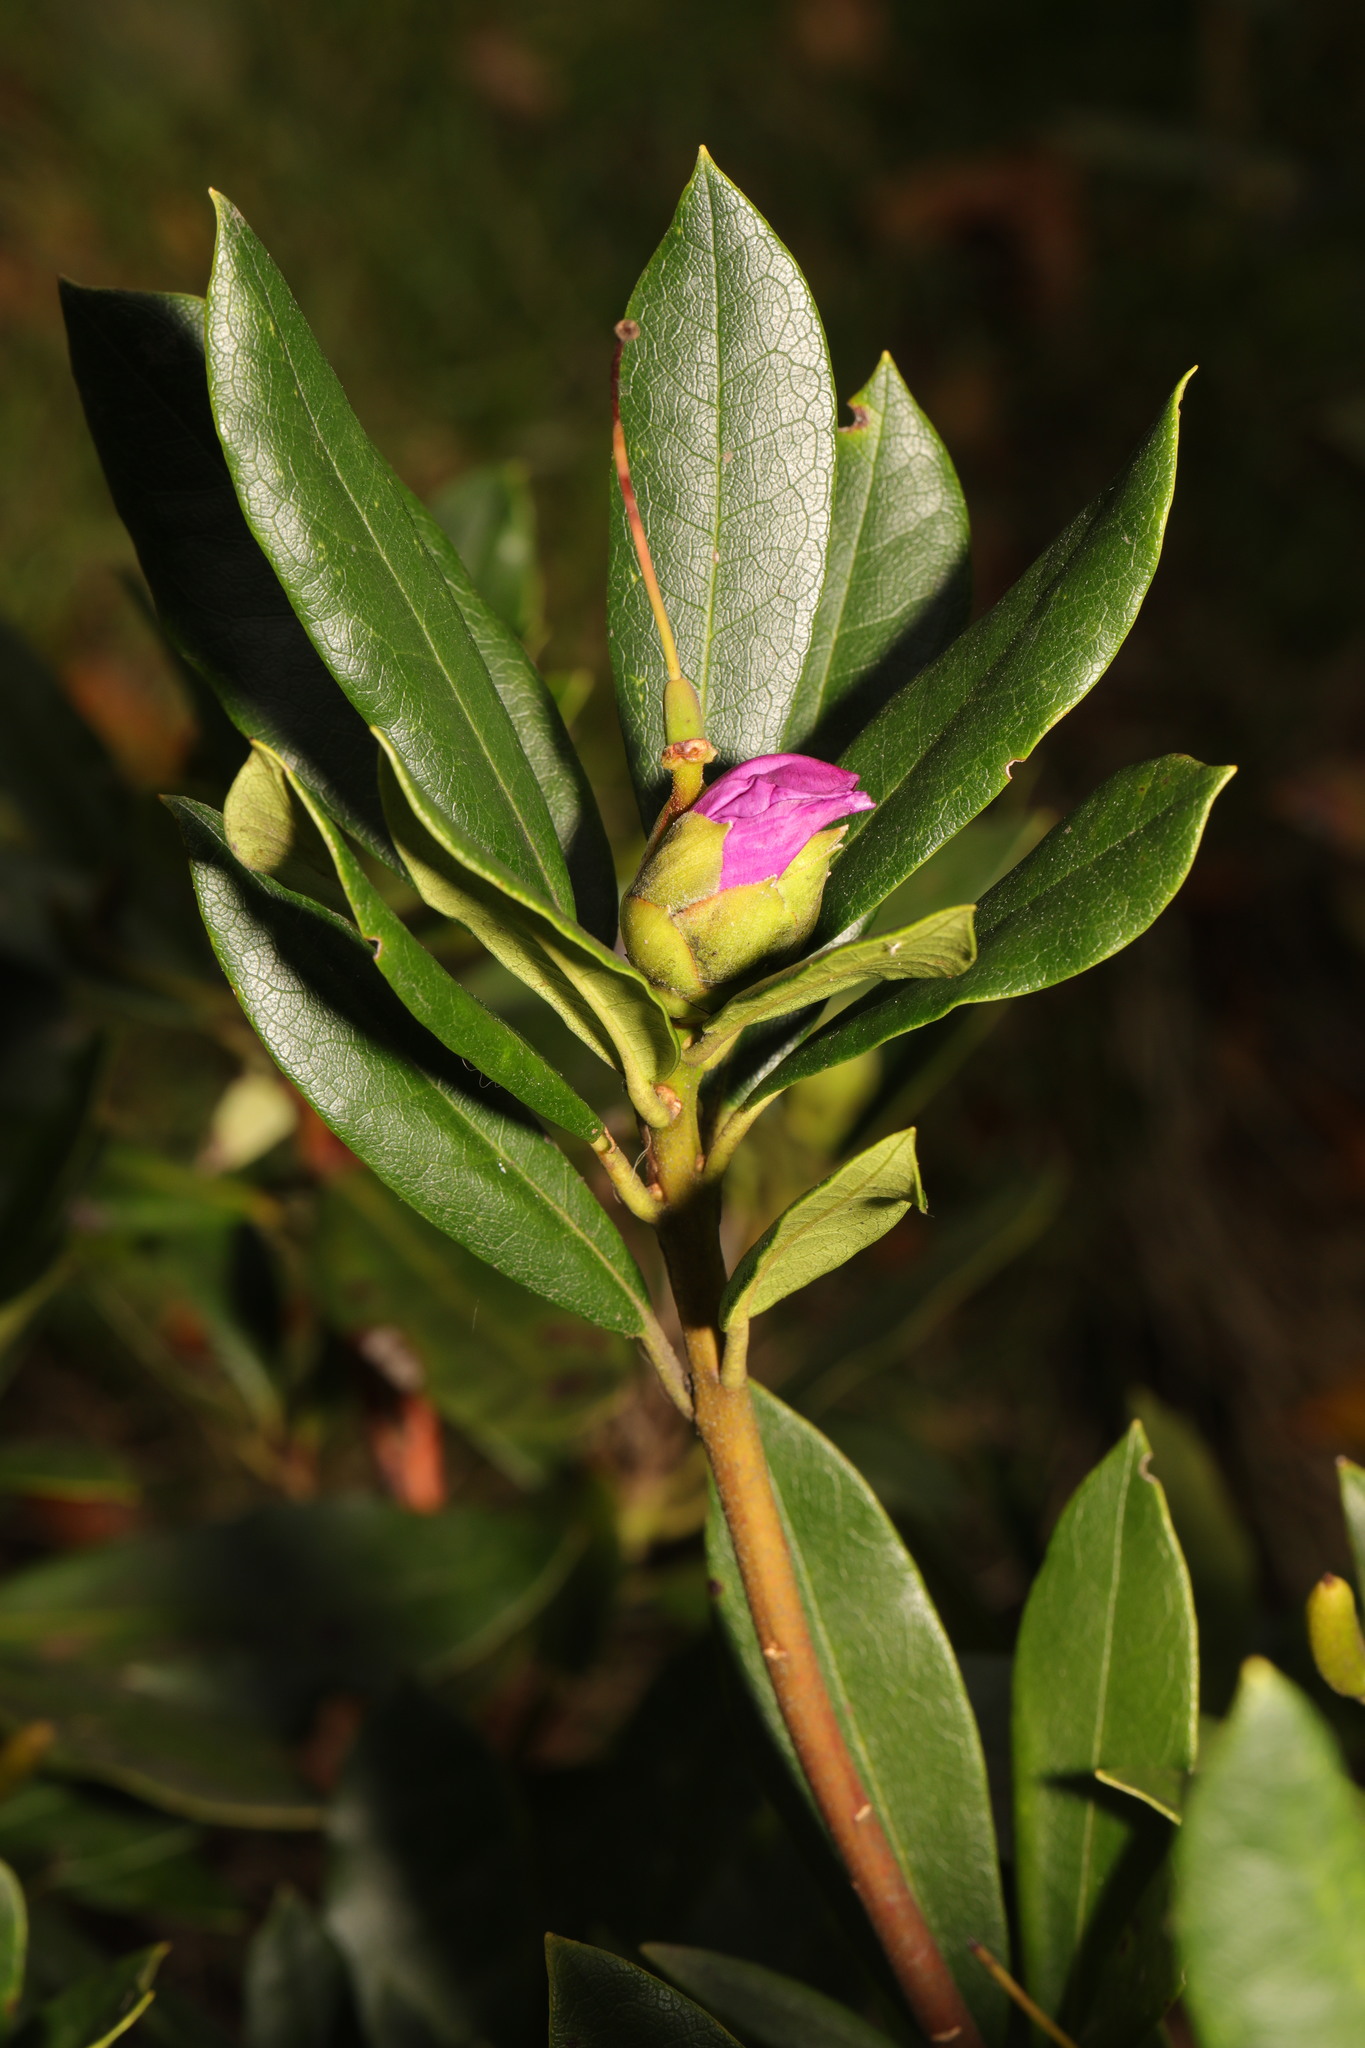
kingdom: Plantae
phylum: Tracheophyta
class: Magnoliopsida
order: Ericales
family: Ericaceae
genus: Rhododendron
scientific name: Rhododendron ponticum
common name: Rhododendron
